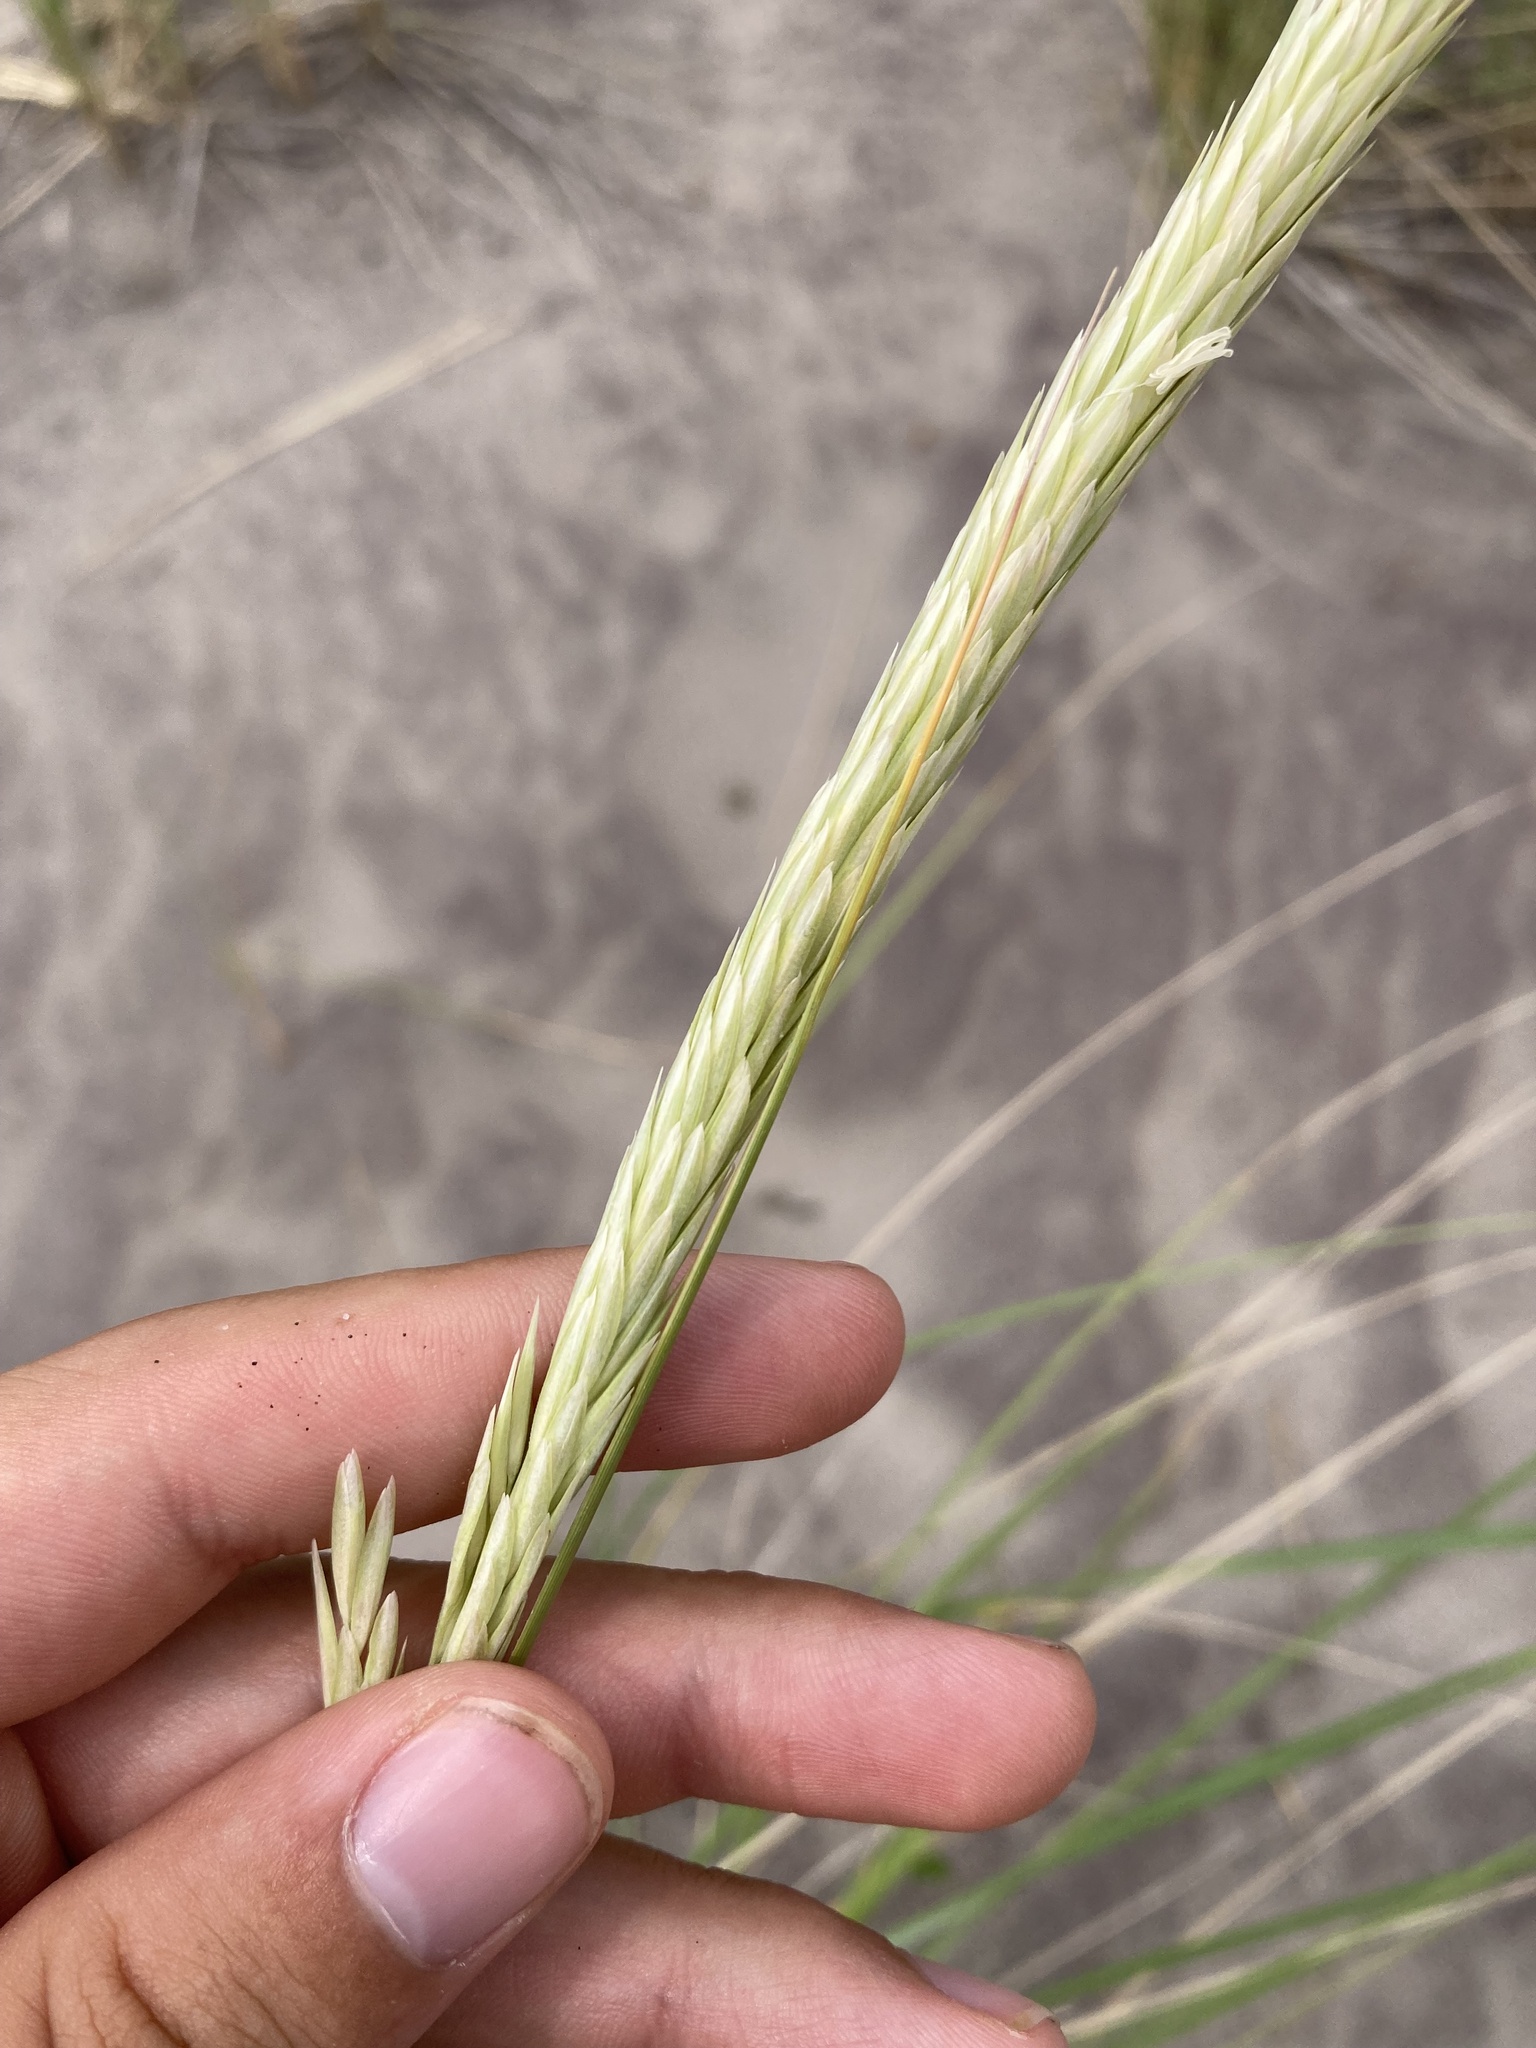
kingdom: Plantae
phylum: Tracheophyta
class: Liliopsida
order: Poales
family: Poaceae
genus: Calamagrostis
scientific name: Calamagrostis breviligulata
